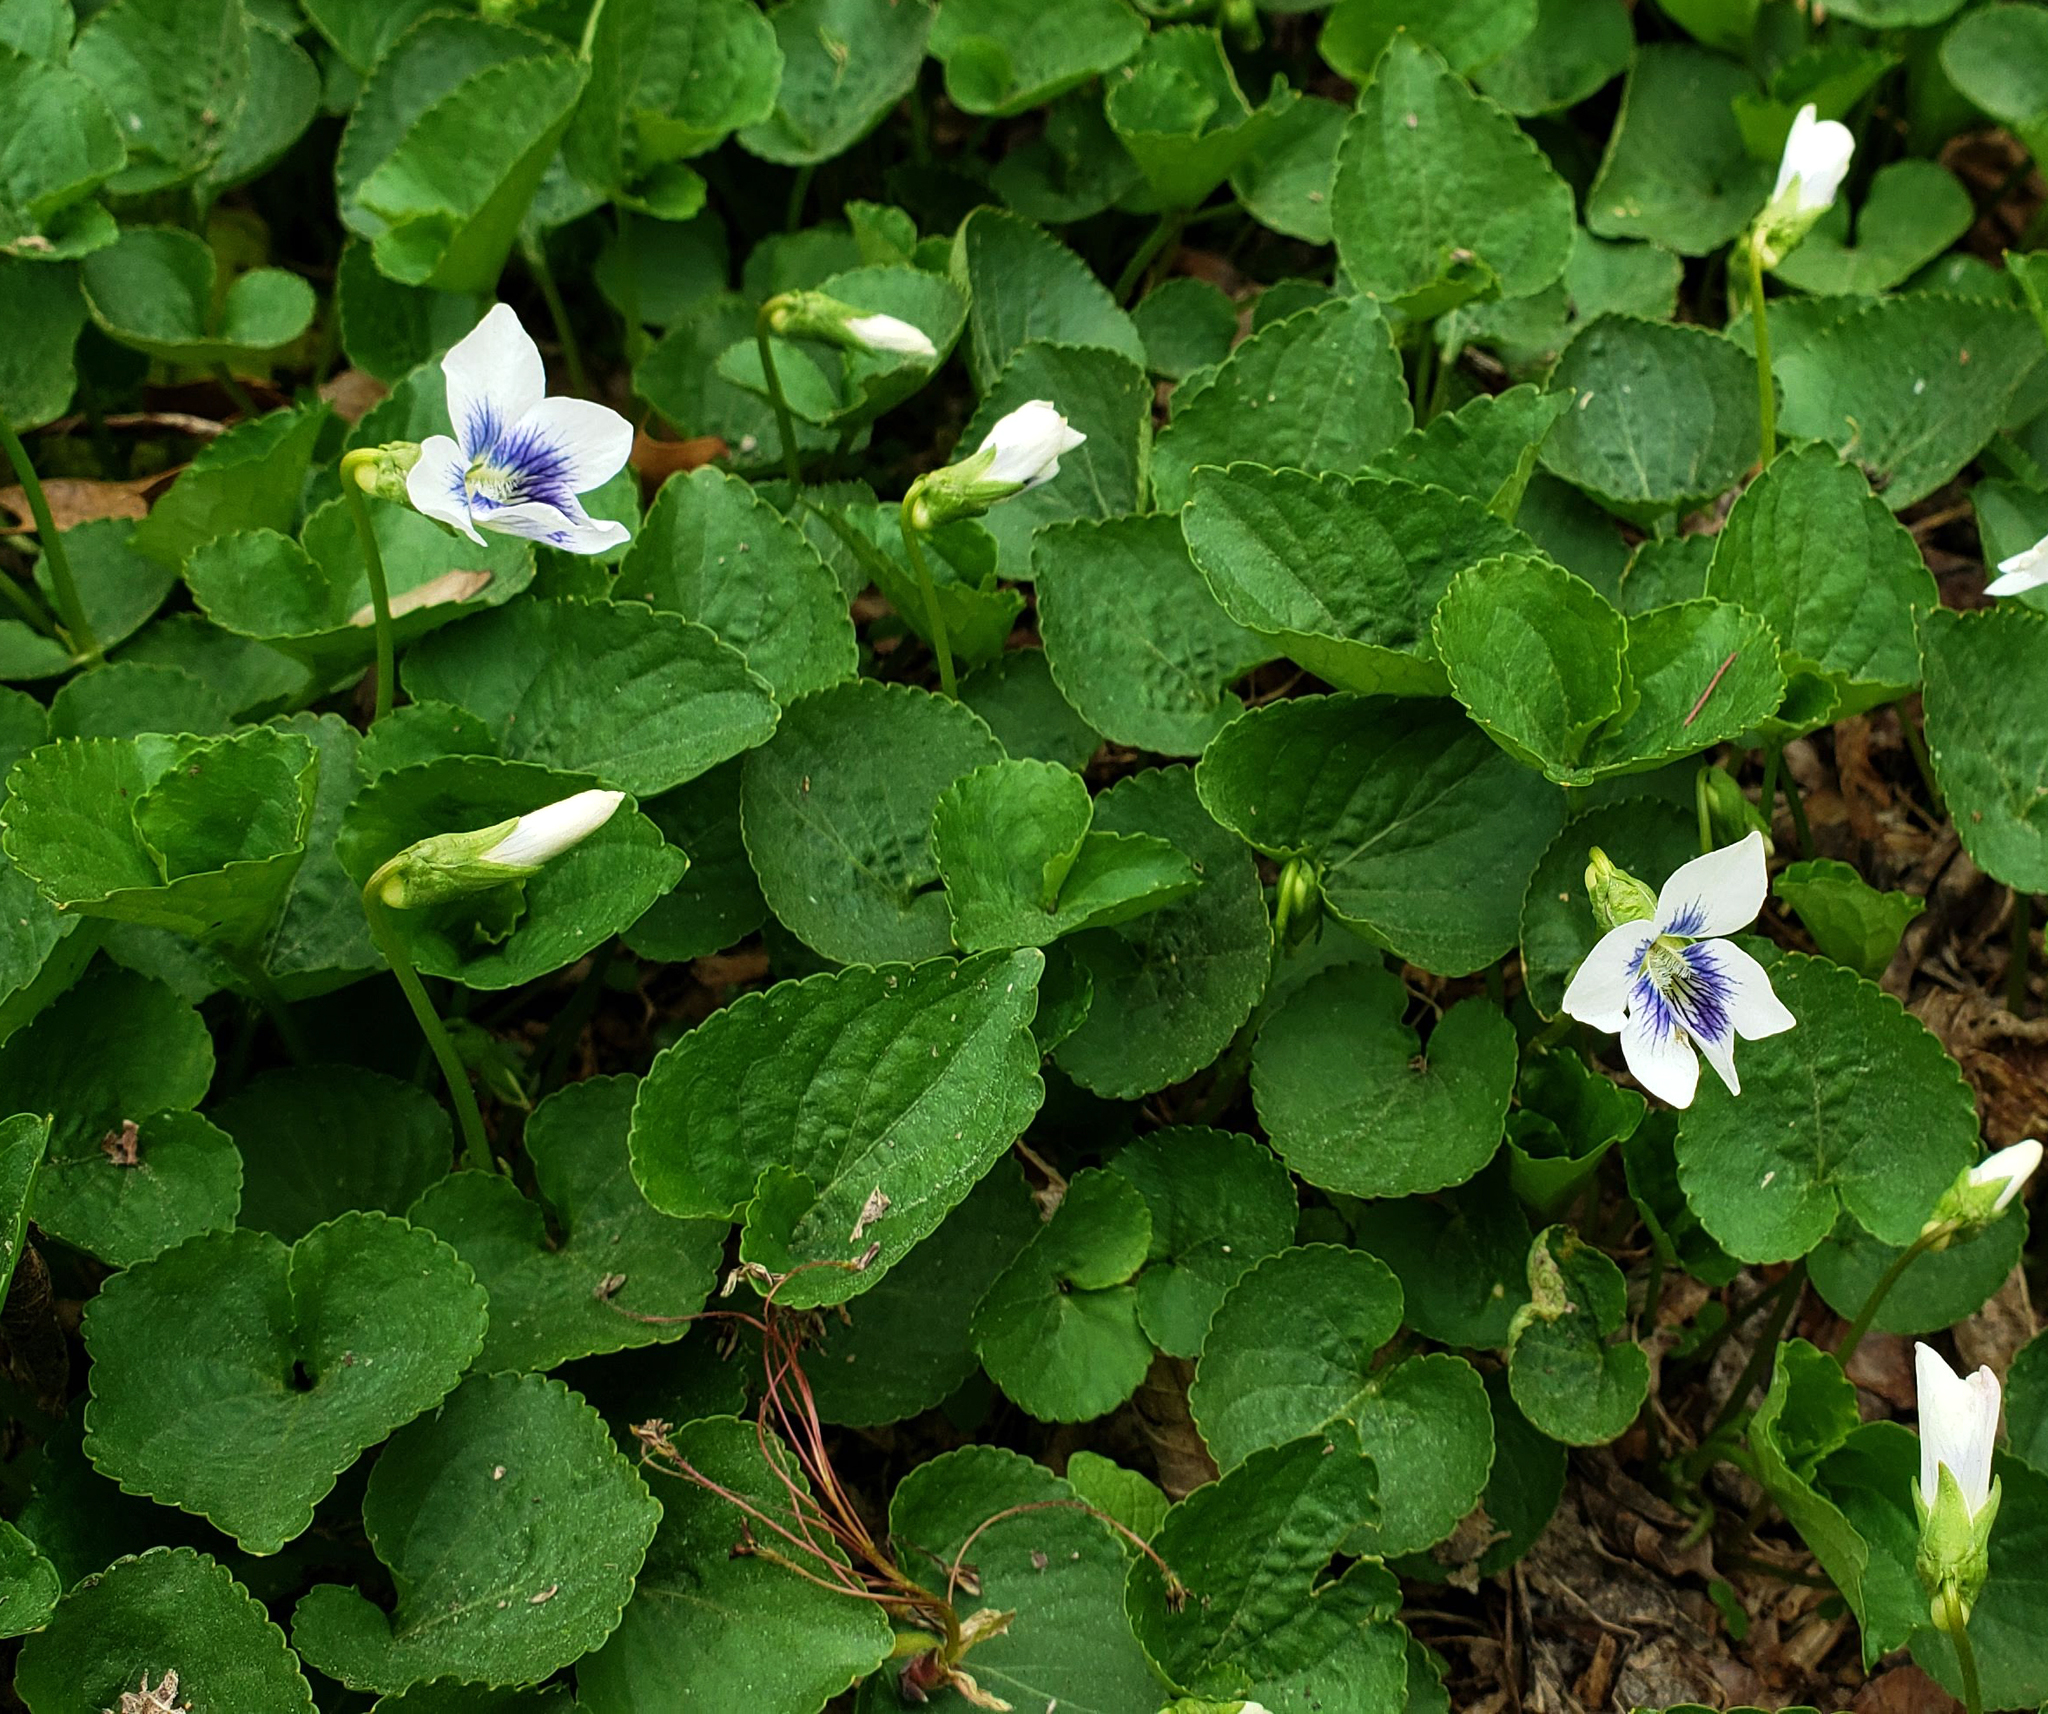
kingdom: Plantae
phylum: Tracheophyta
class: Magnoliopsida
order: Malpighiales
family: Violaceae
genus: Viola
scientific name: Viola sororia
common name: Dooryard violet
